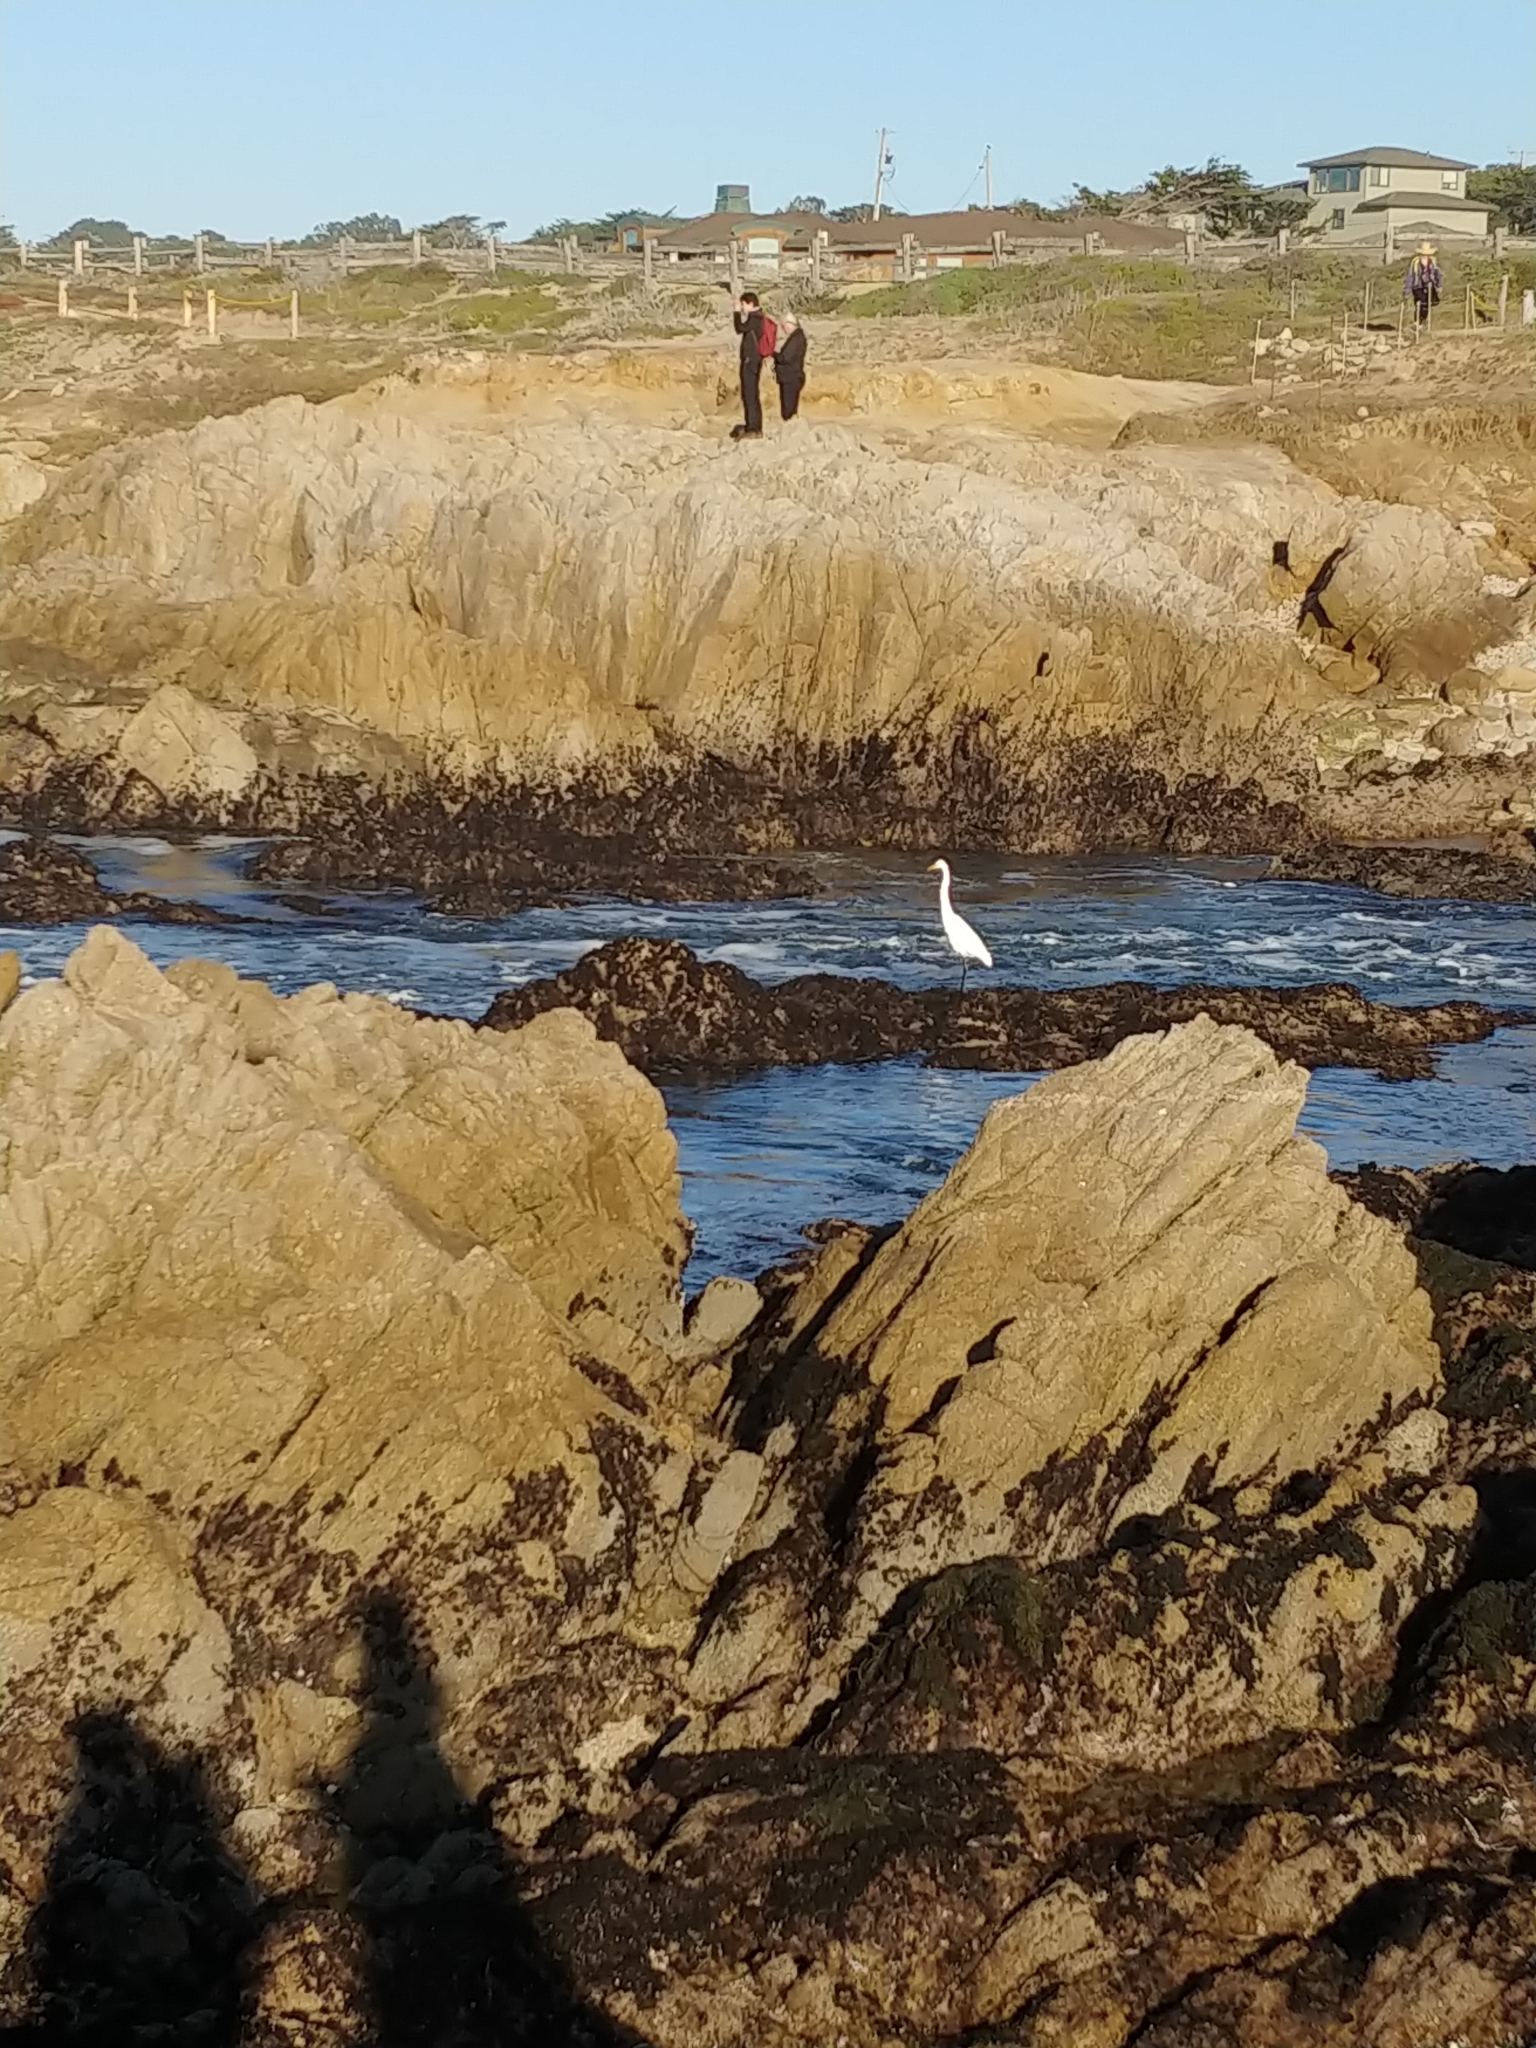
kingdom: Animalia
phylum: Chordata
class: Aves
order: Pelecaniformes
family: Ardeidae
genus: Ardea
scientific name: Ardea alba
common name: Great egret
